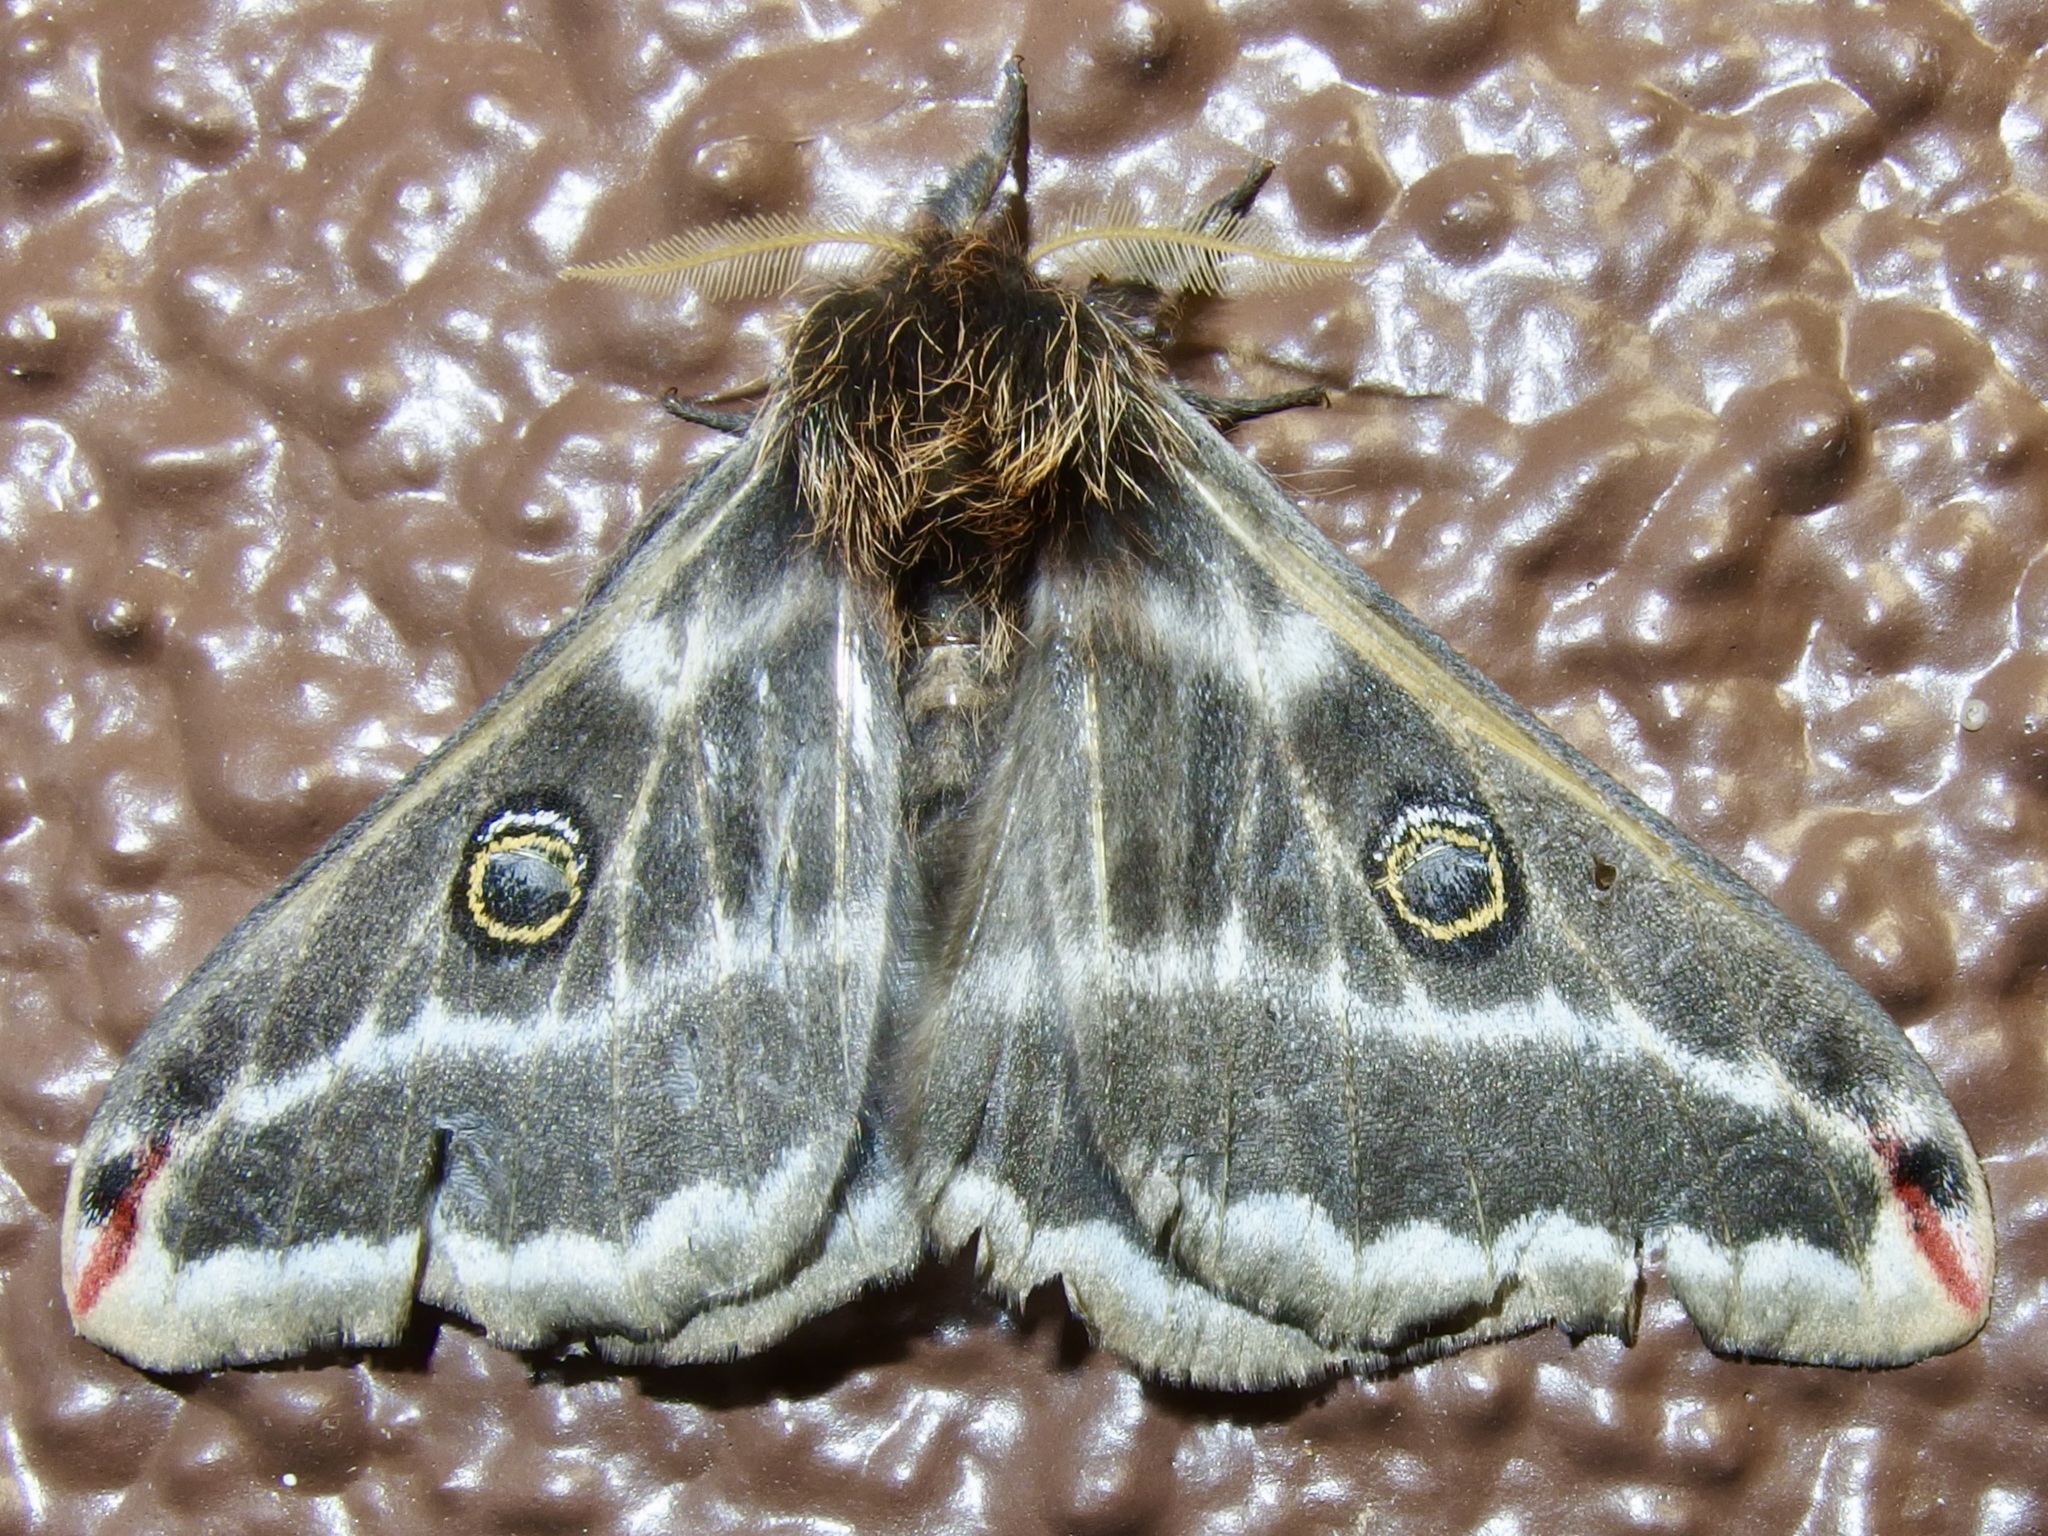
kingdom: Animalia
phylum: Arthropoda
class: Insecta
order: Lepidoptera
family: Saturniidae
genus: Saturnia
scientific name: Saturnia anona
